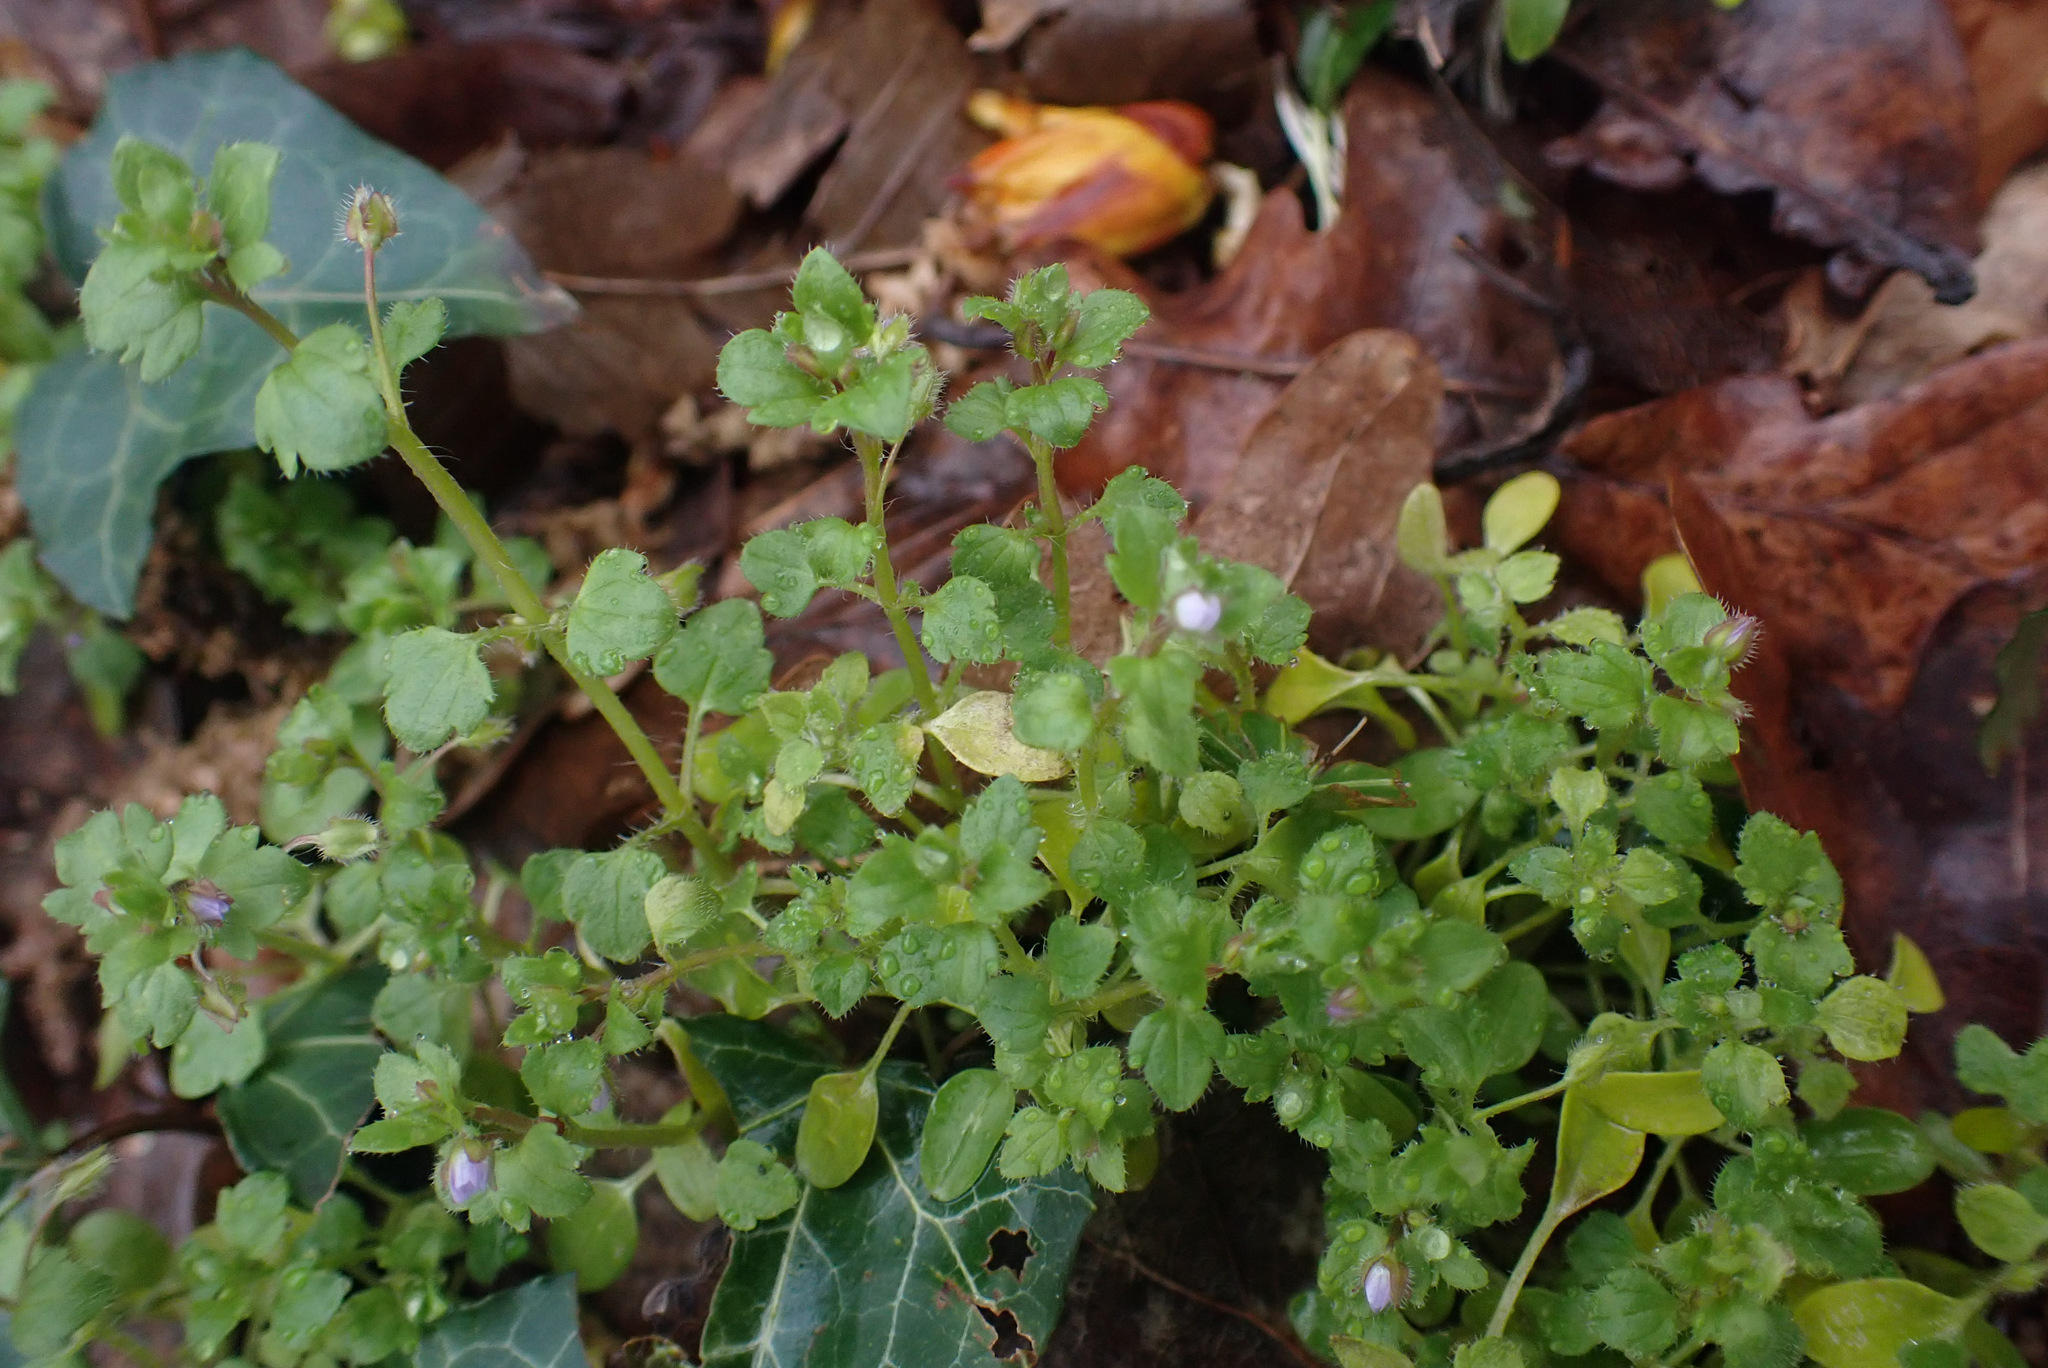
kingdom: Plantae
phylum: Tracheophyta
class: Magnoliopsida
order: Lamiales
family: Plantaginaceae
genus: Veronica
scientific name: Veronica sublobata
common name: False ivy-leaved speedwell
